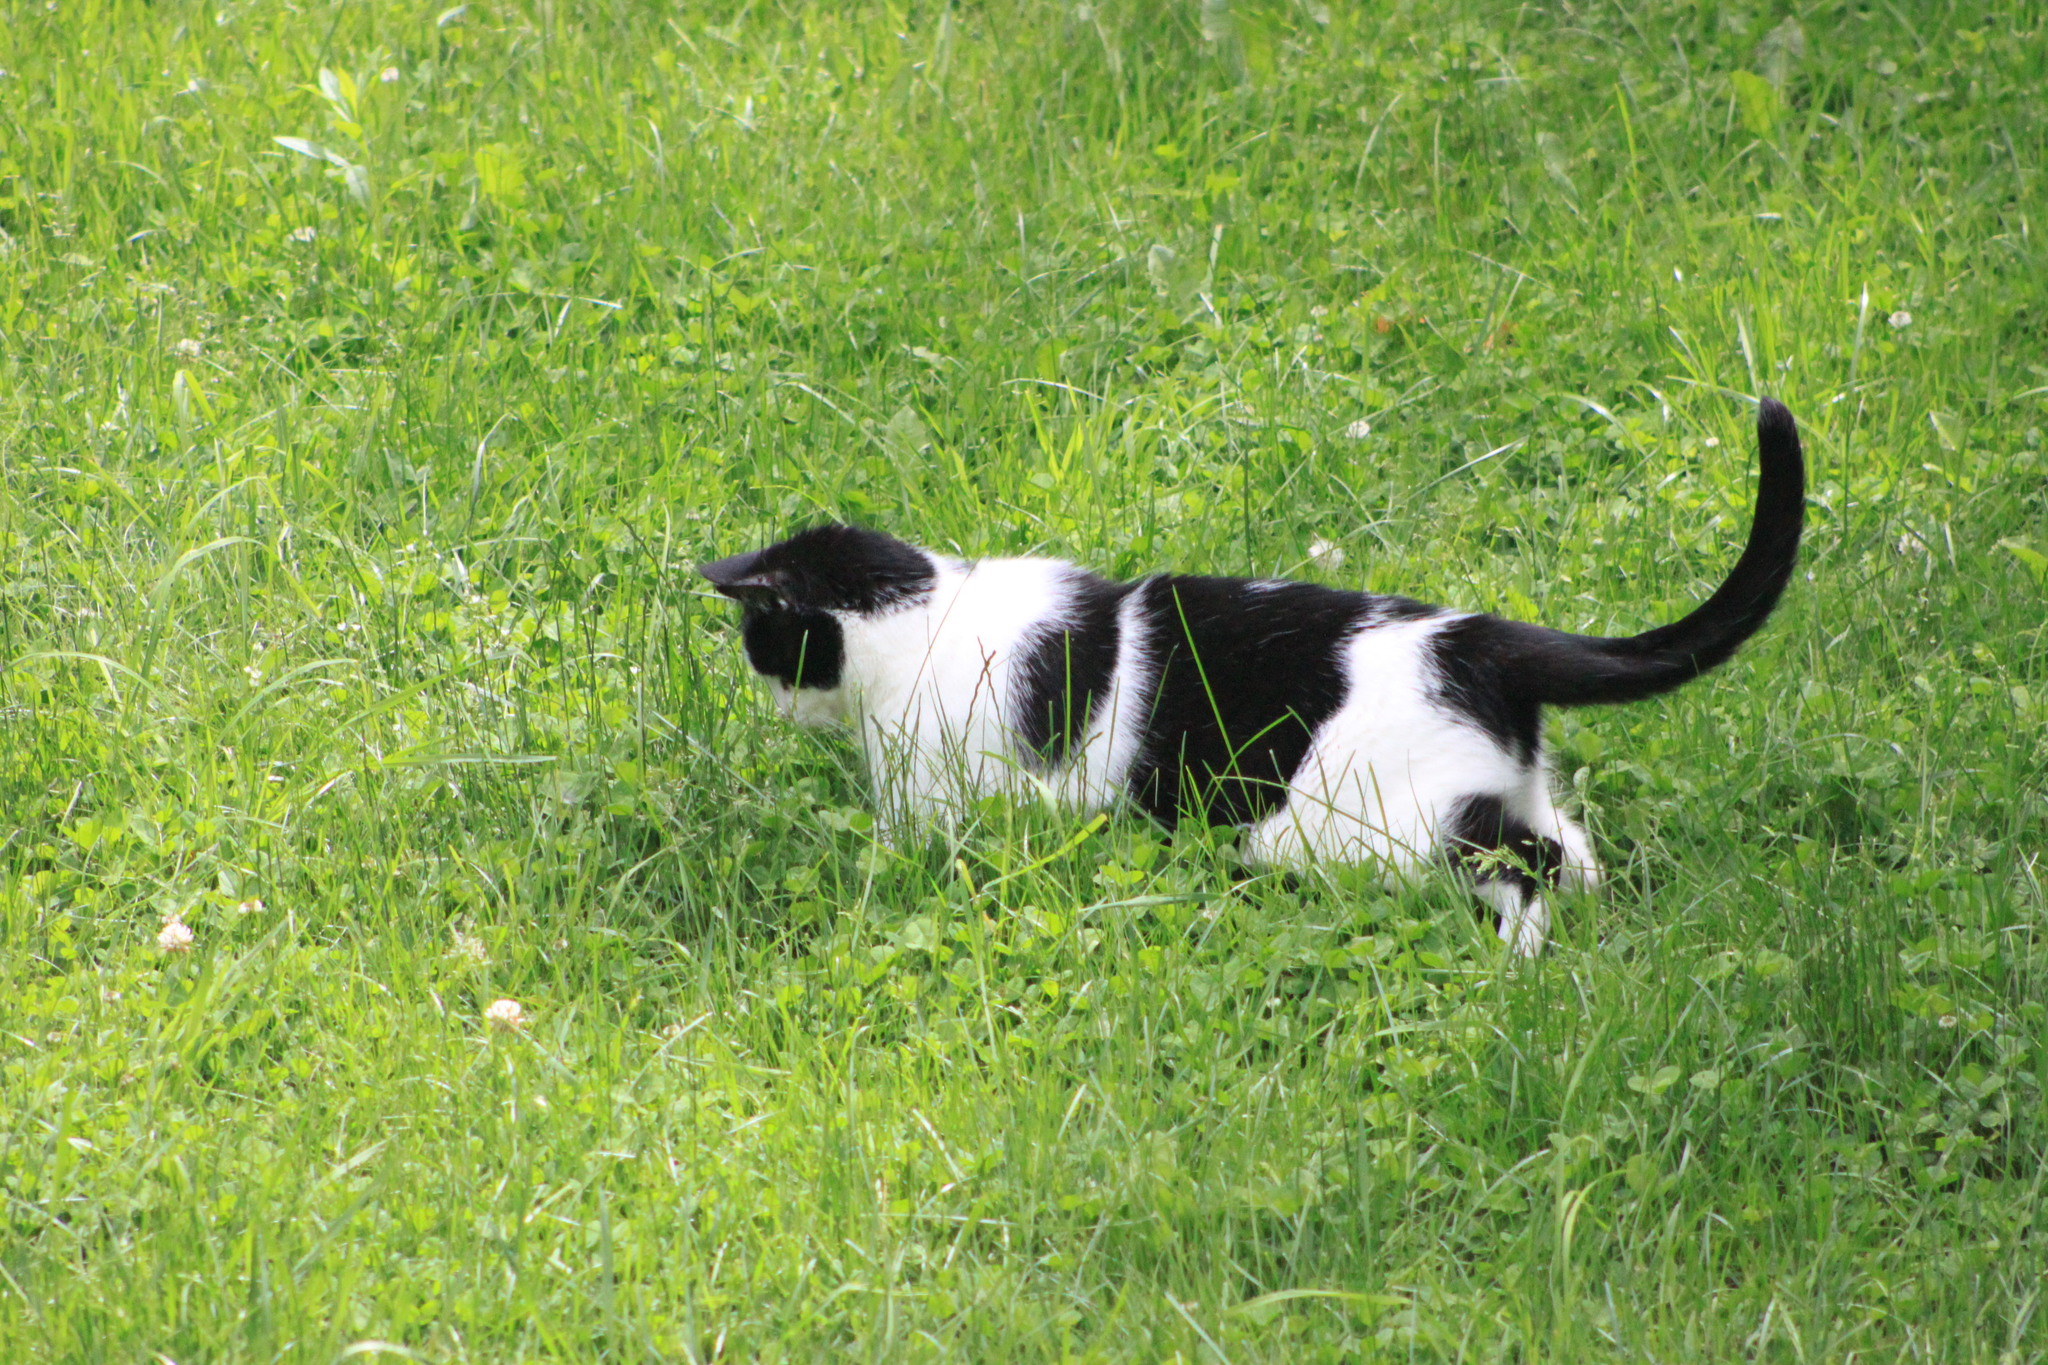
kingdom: Animalia
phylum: Chordata
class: Mammalia
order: Carnivora
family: Felidae
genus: Felis
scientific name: Felis catus
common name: Domestic cat
